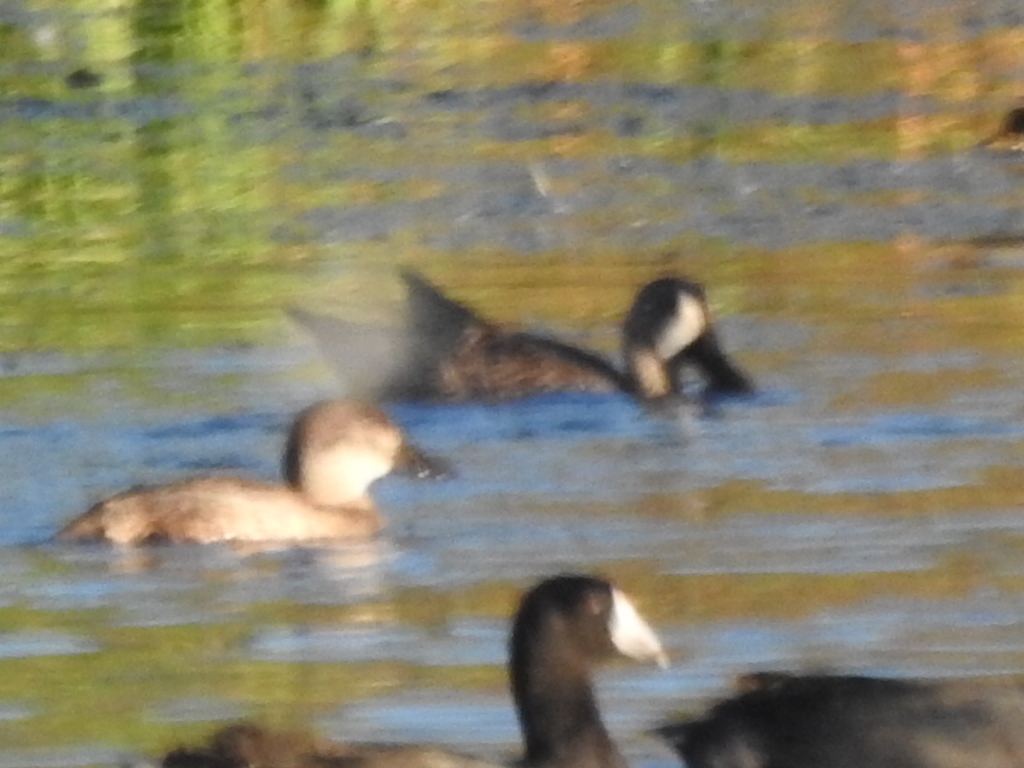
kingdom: Animalia
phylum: Chordata
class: Aves
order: Anseriformes
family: Anatidae
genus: Spatula
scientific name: Spatula discors
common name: Blue-winged teal
